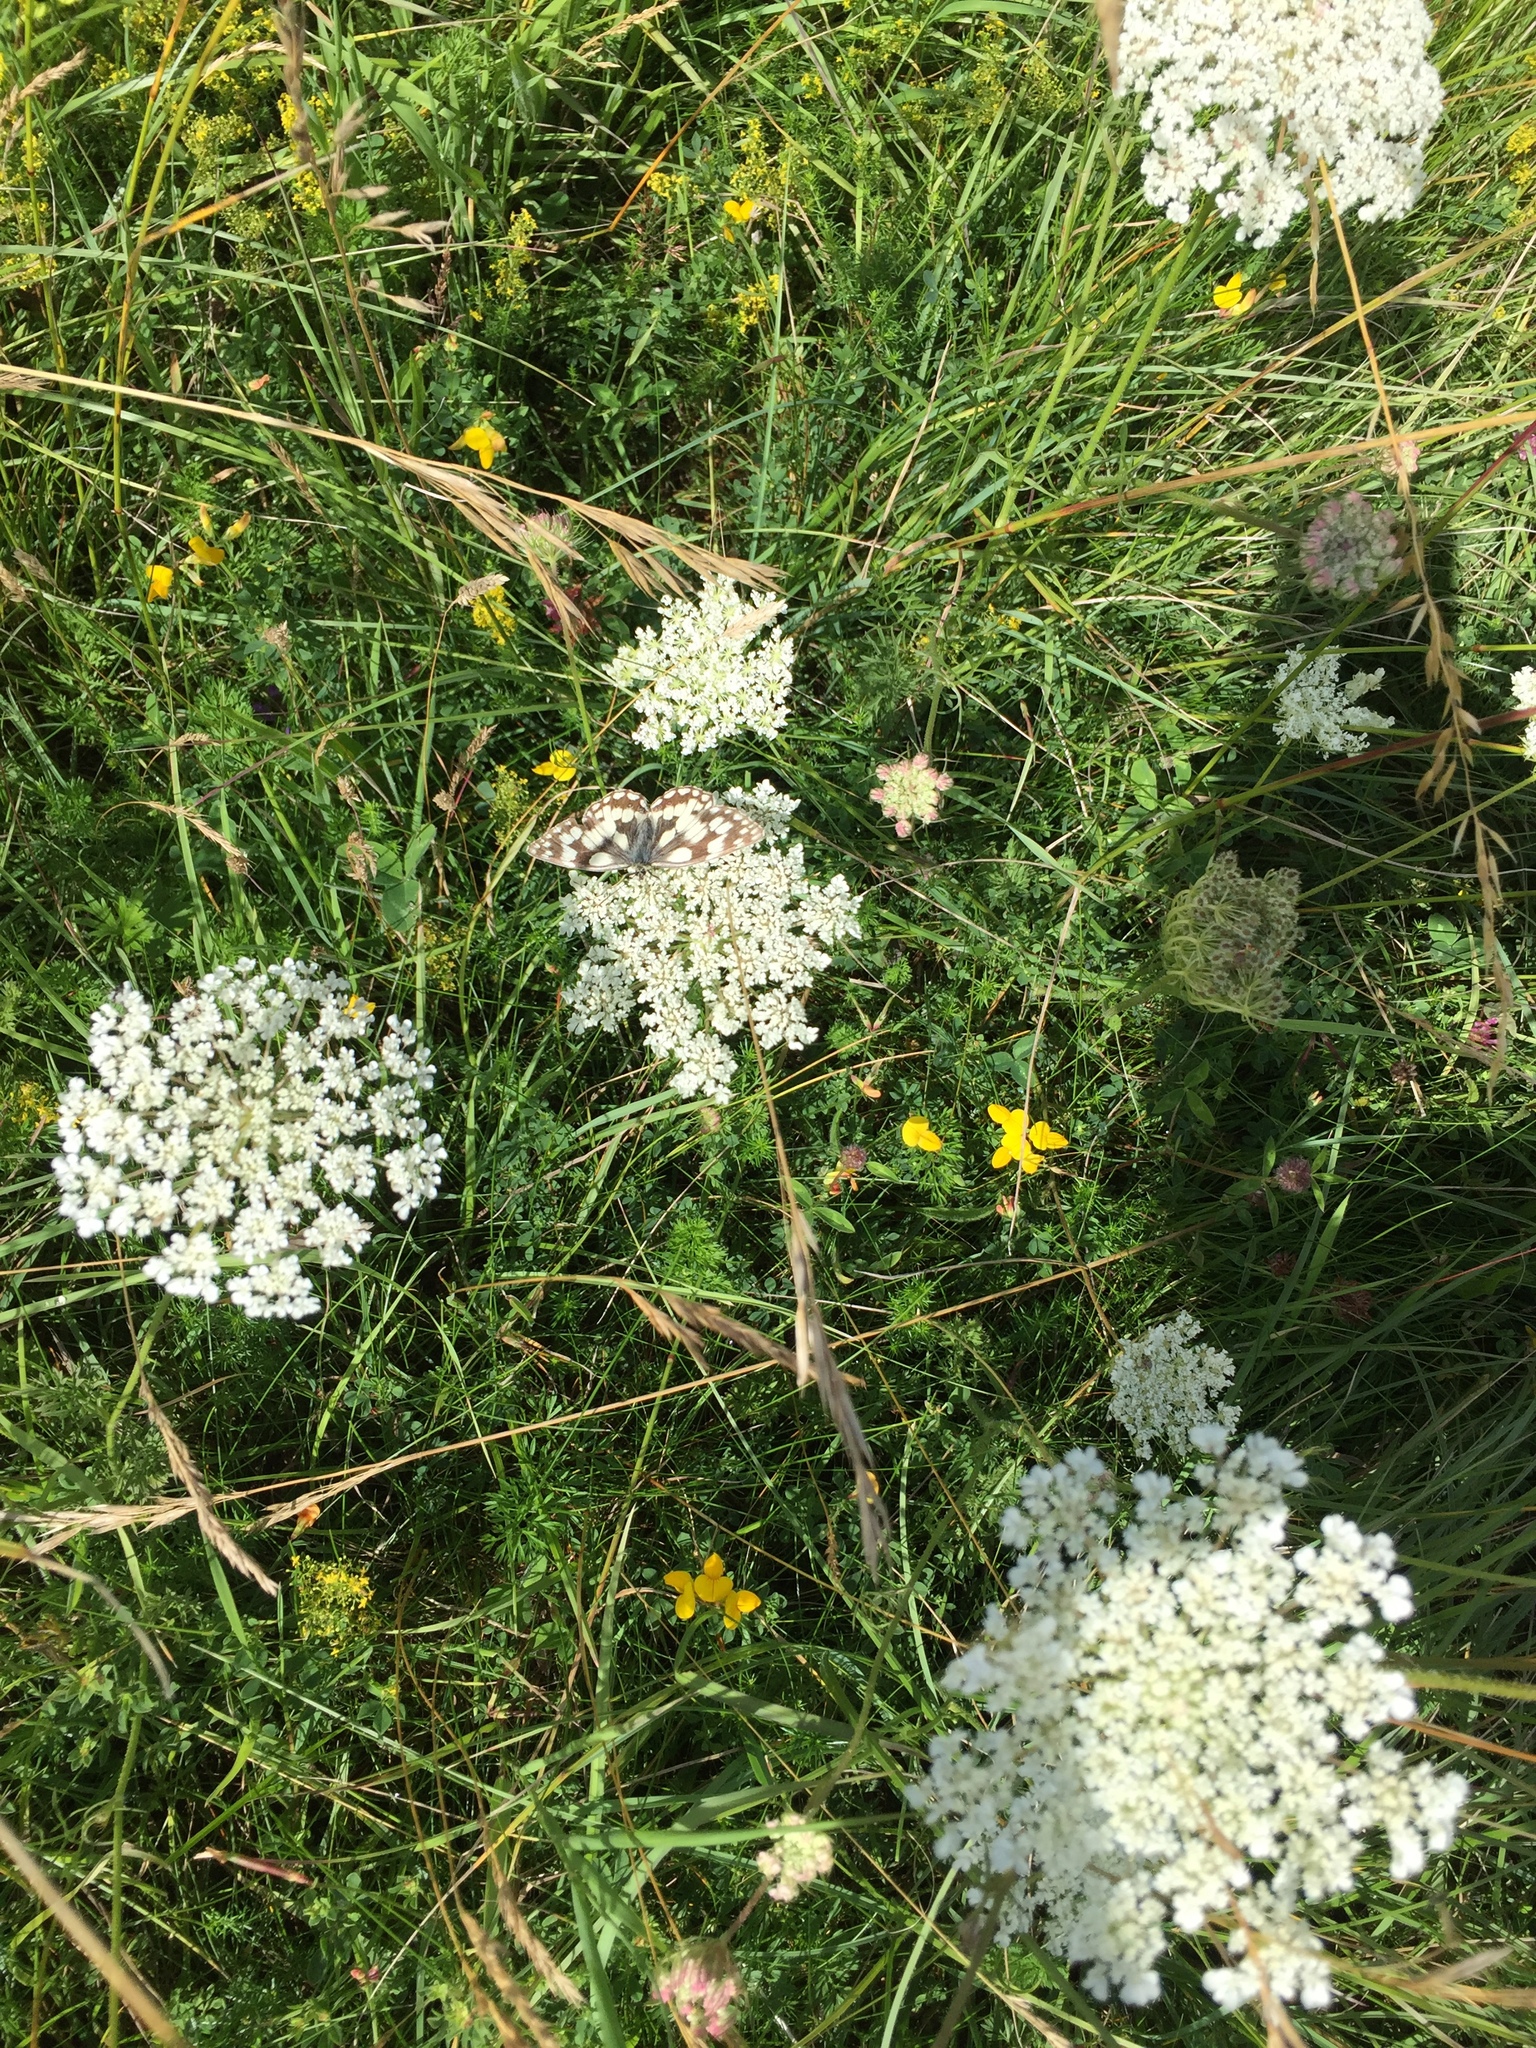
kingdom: Animalia
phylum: Arthropoda
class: Insecta
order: Lepidoptera
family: Nymphalidae
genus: Melanargia
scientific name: Melanargia galathea
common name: Marbled white
